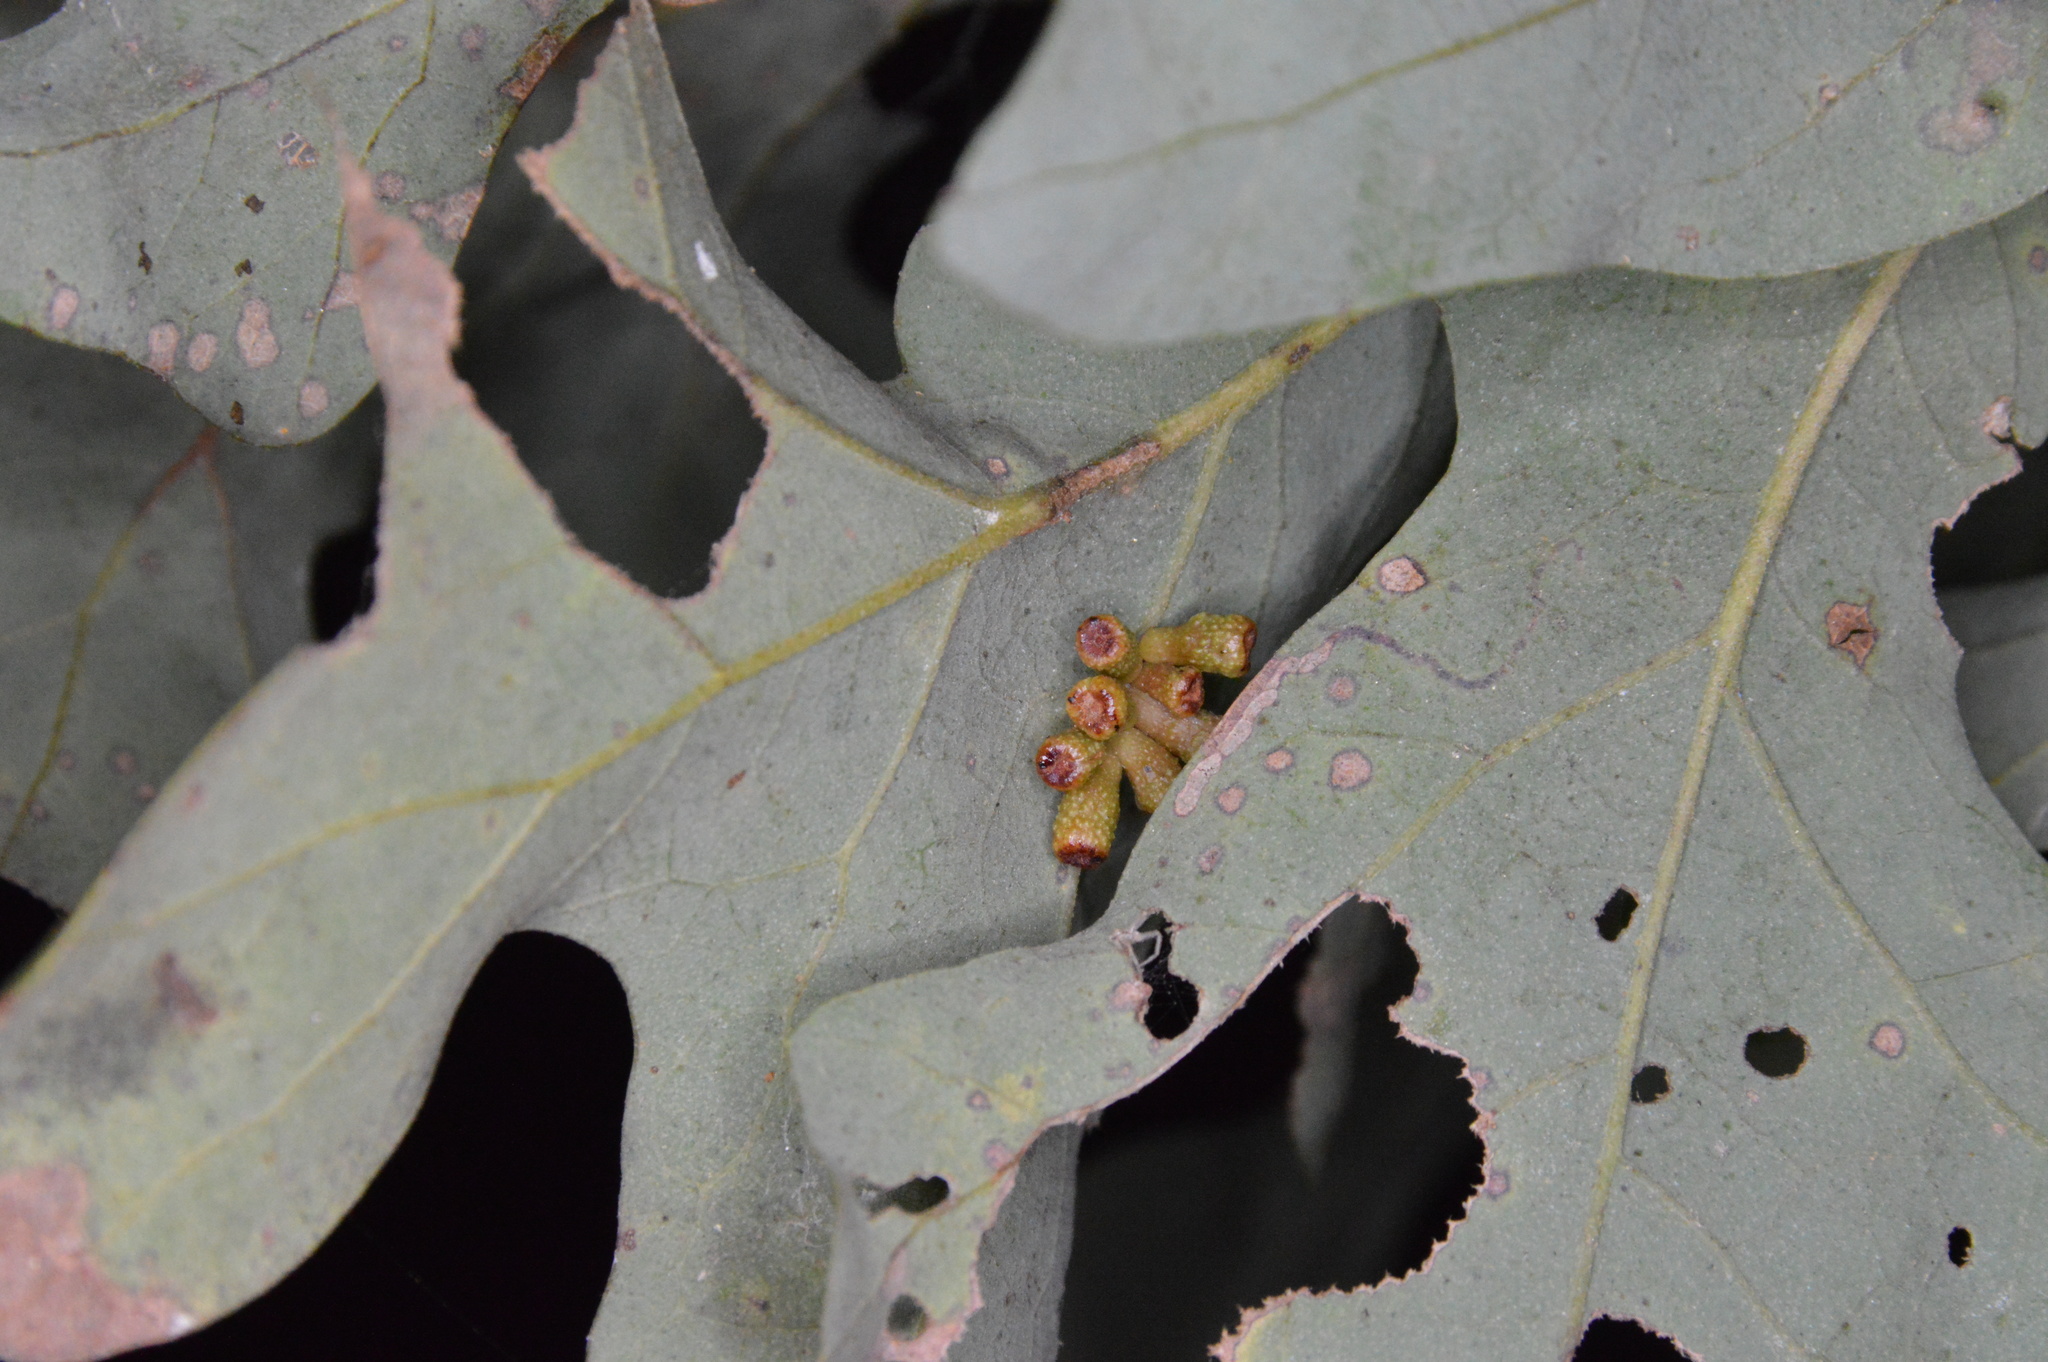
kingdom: Animalia
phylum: Arthropoda
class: Insecta
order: Hymenoptera
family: Cynipidae
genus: Andricus
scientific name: Andricus lustrans
